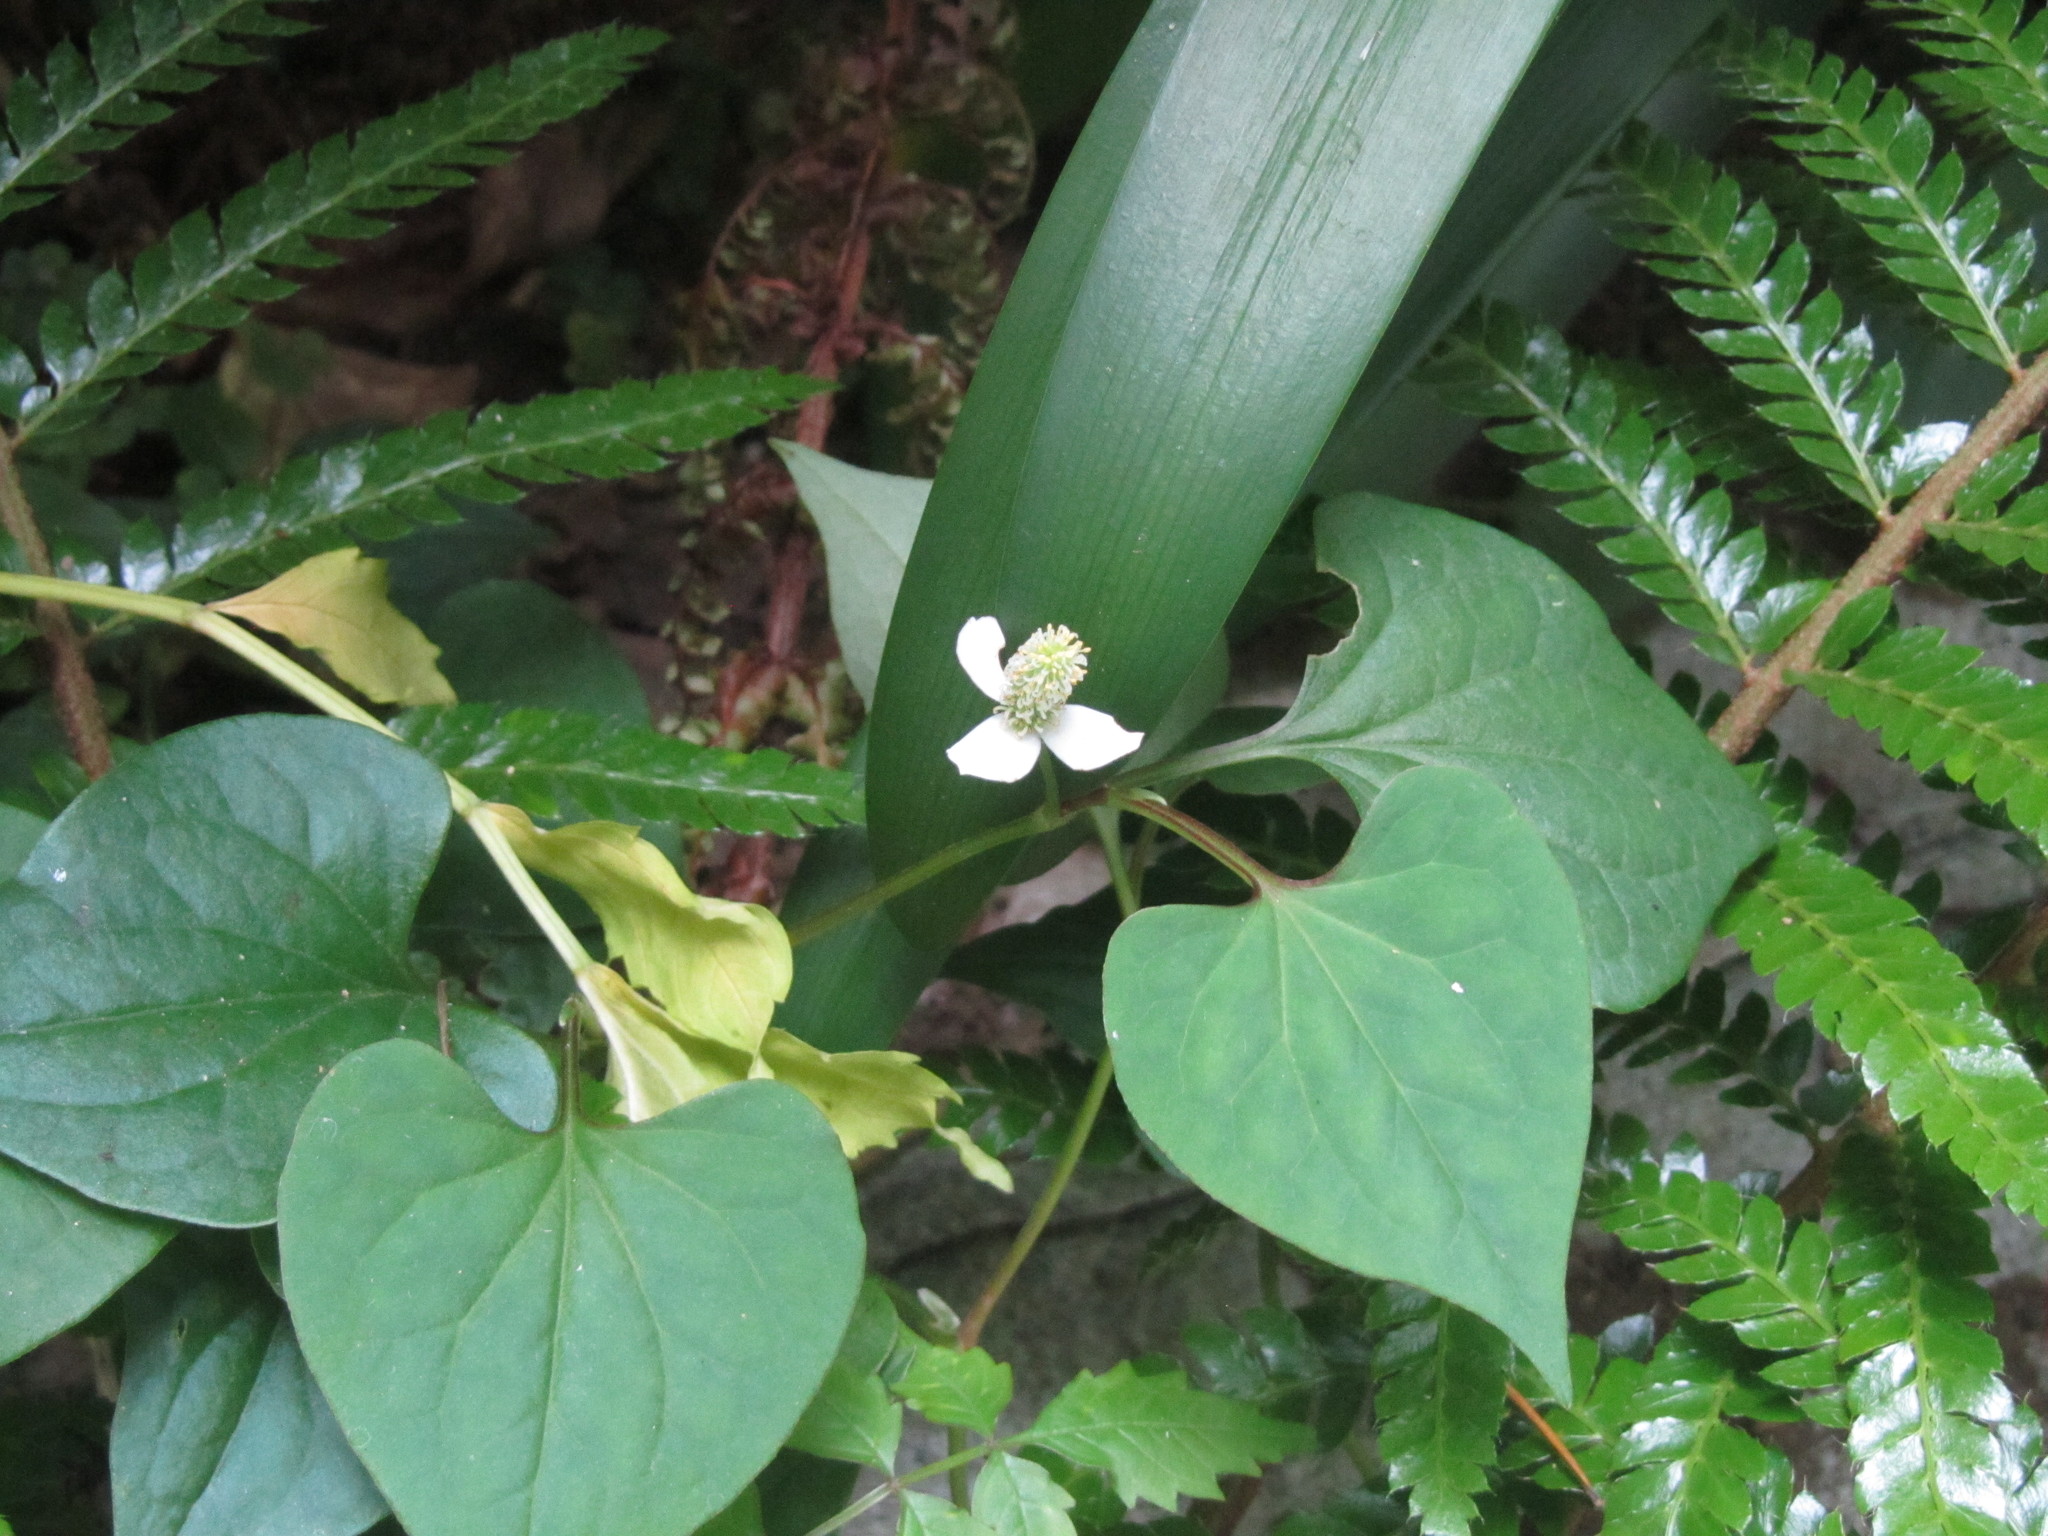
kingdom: Plantae
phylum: Tracheophyta
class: Magnoliopsida
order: Piperales
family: Saururaceae
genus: Houttuynia
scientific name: Houttuynia cordata
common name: Chameleon
